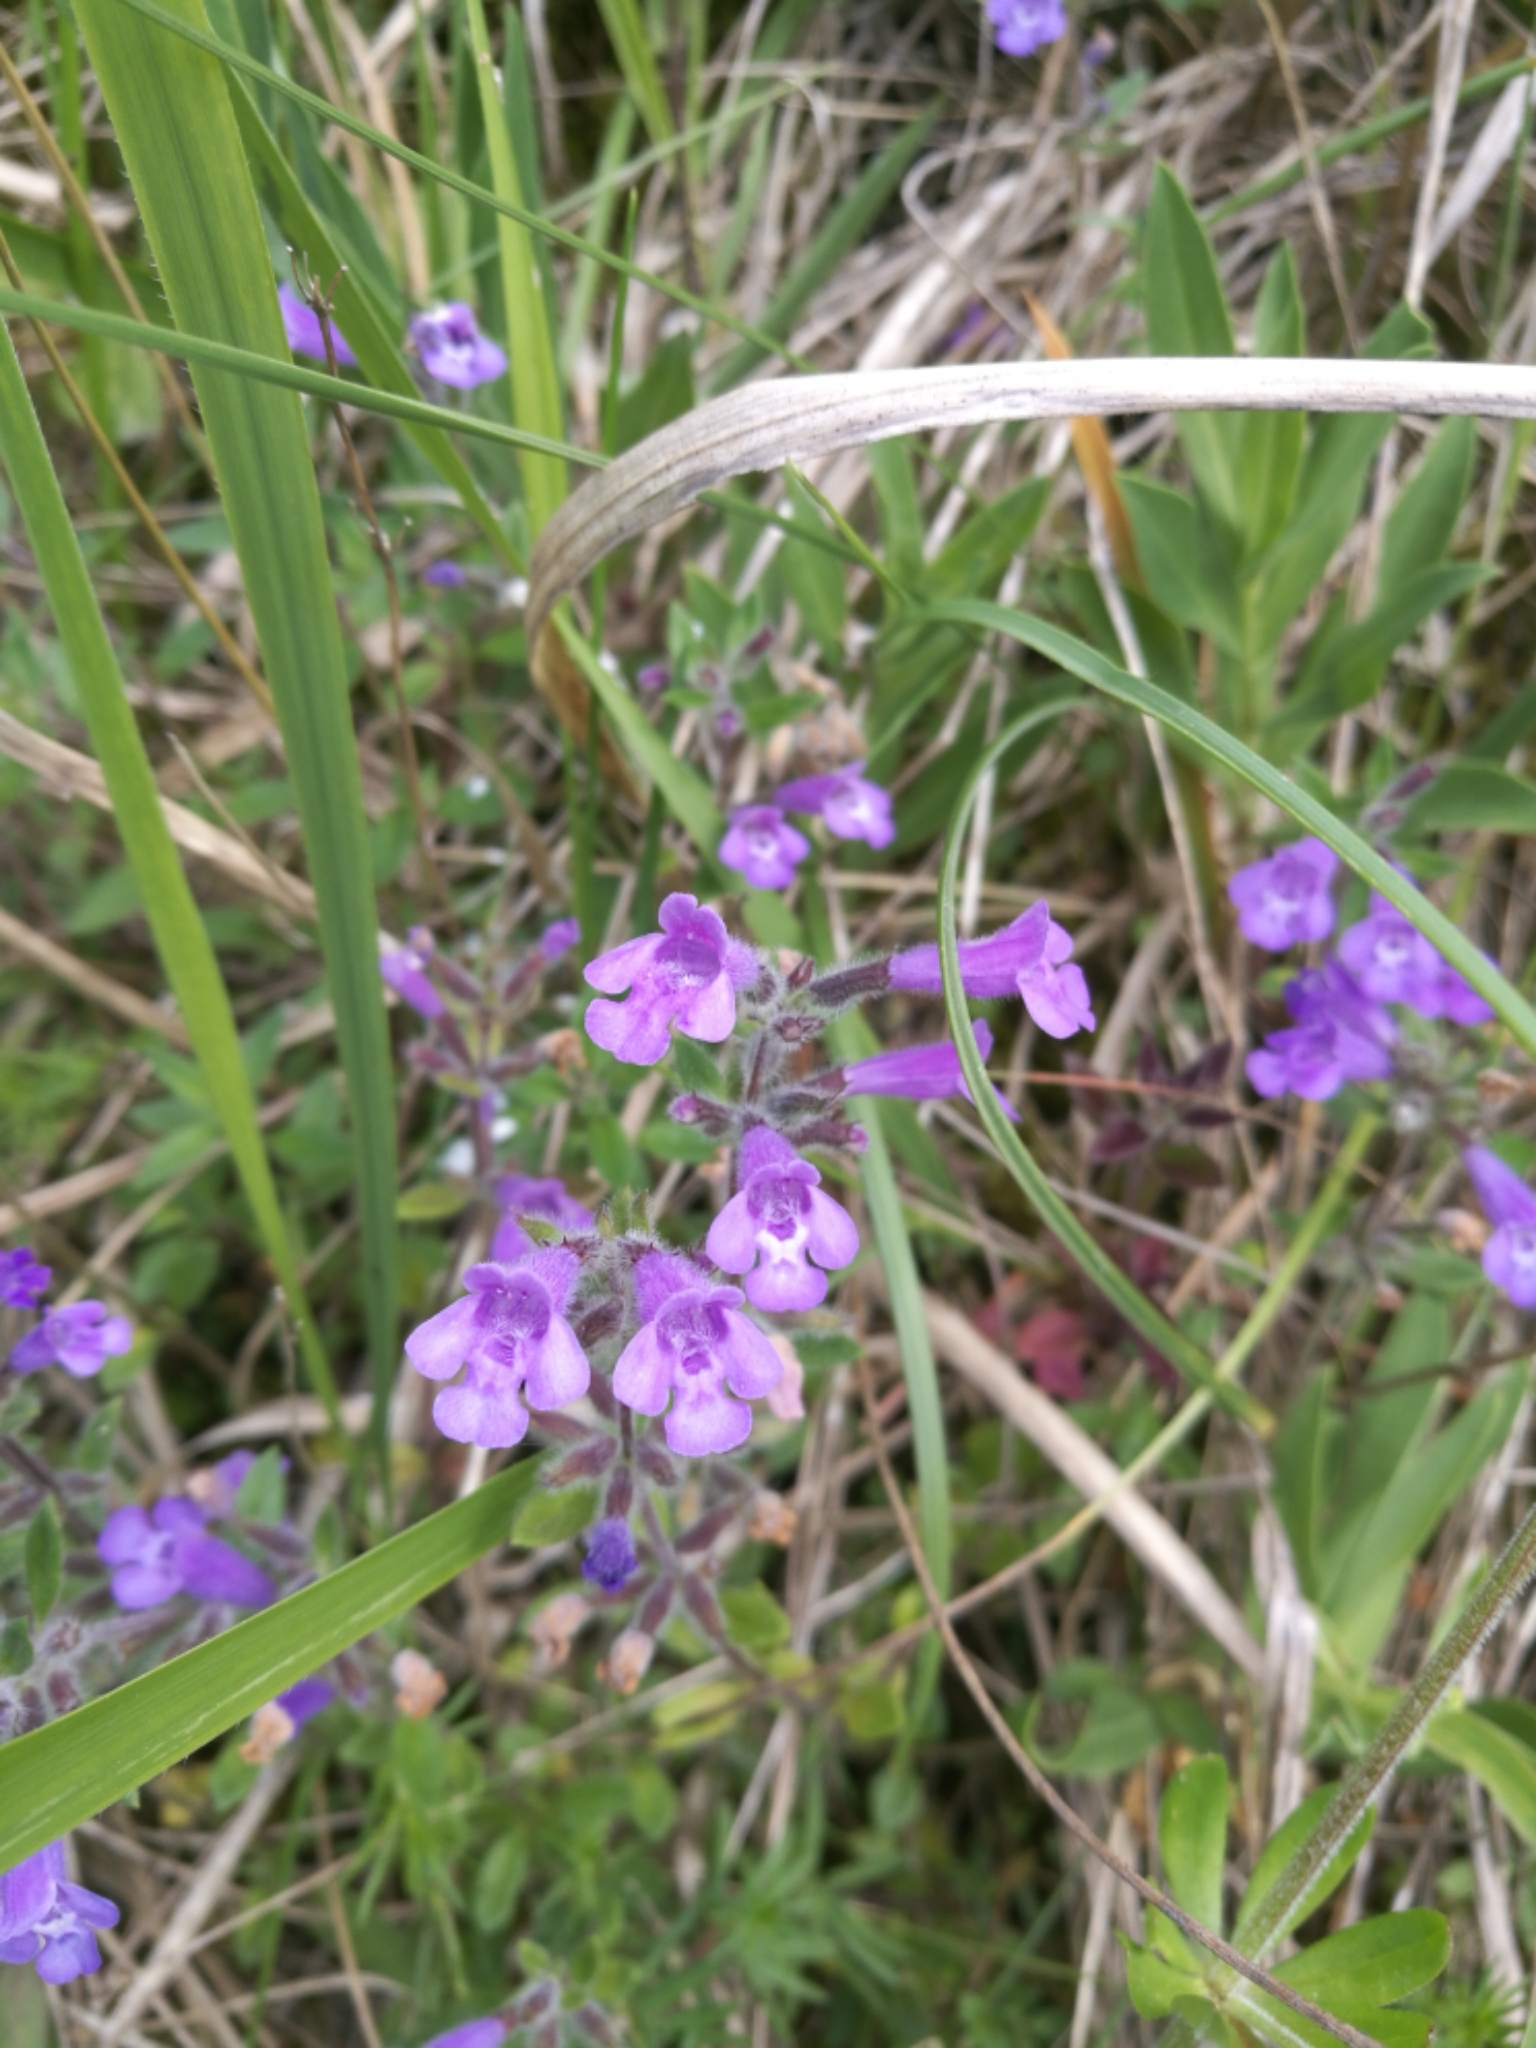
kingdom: Plantae
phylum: Tracheophyta
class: Magnoliopsida
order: Lamiales
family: Lamiaceae
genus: Clinopodium
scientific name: Clinopodium alpinum
